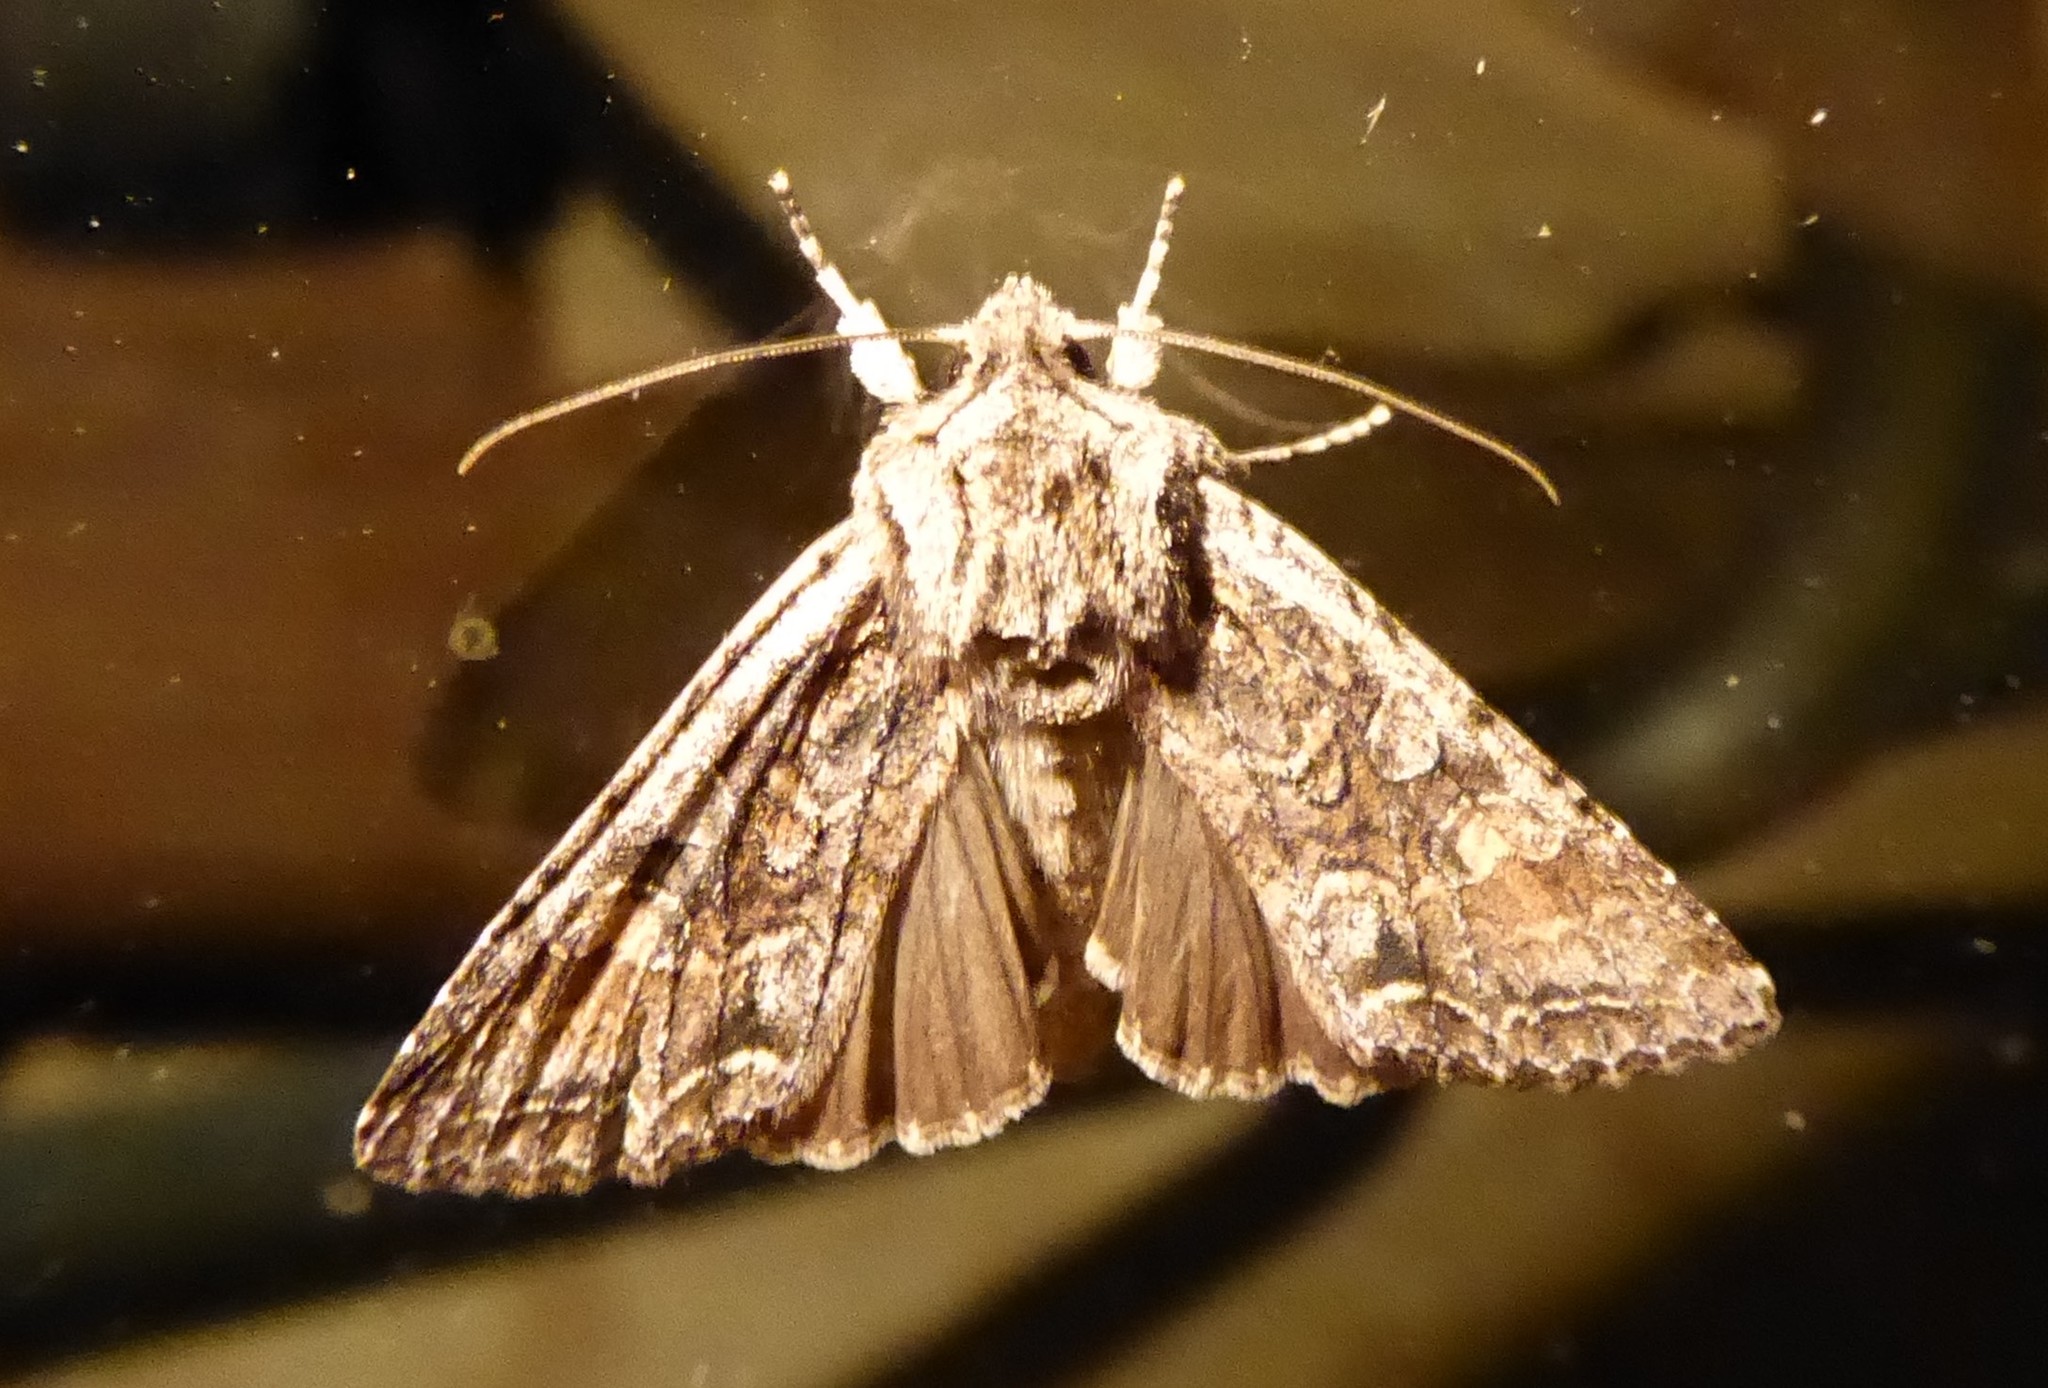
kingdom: Animalia
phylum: Arthropoda
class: Insecta
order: Lepidoptera
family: Noctuidae
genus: Ichneutica
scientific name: Ichneutica mutans
